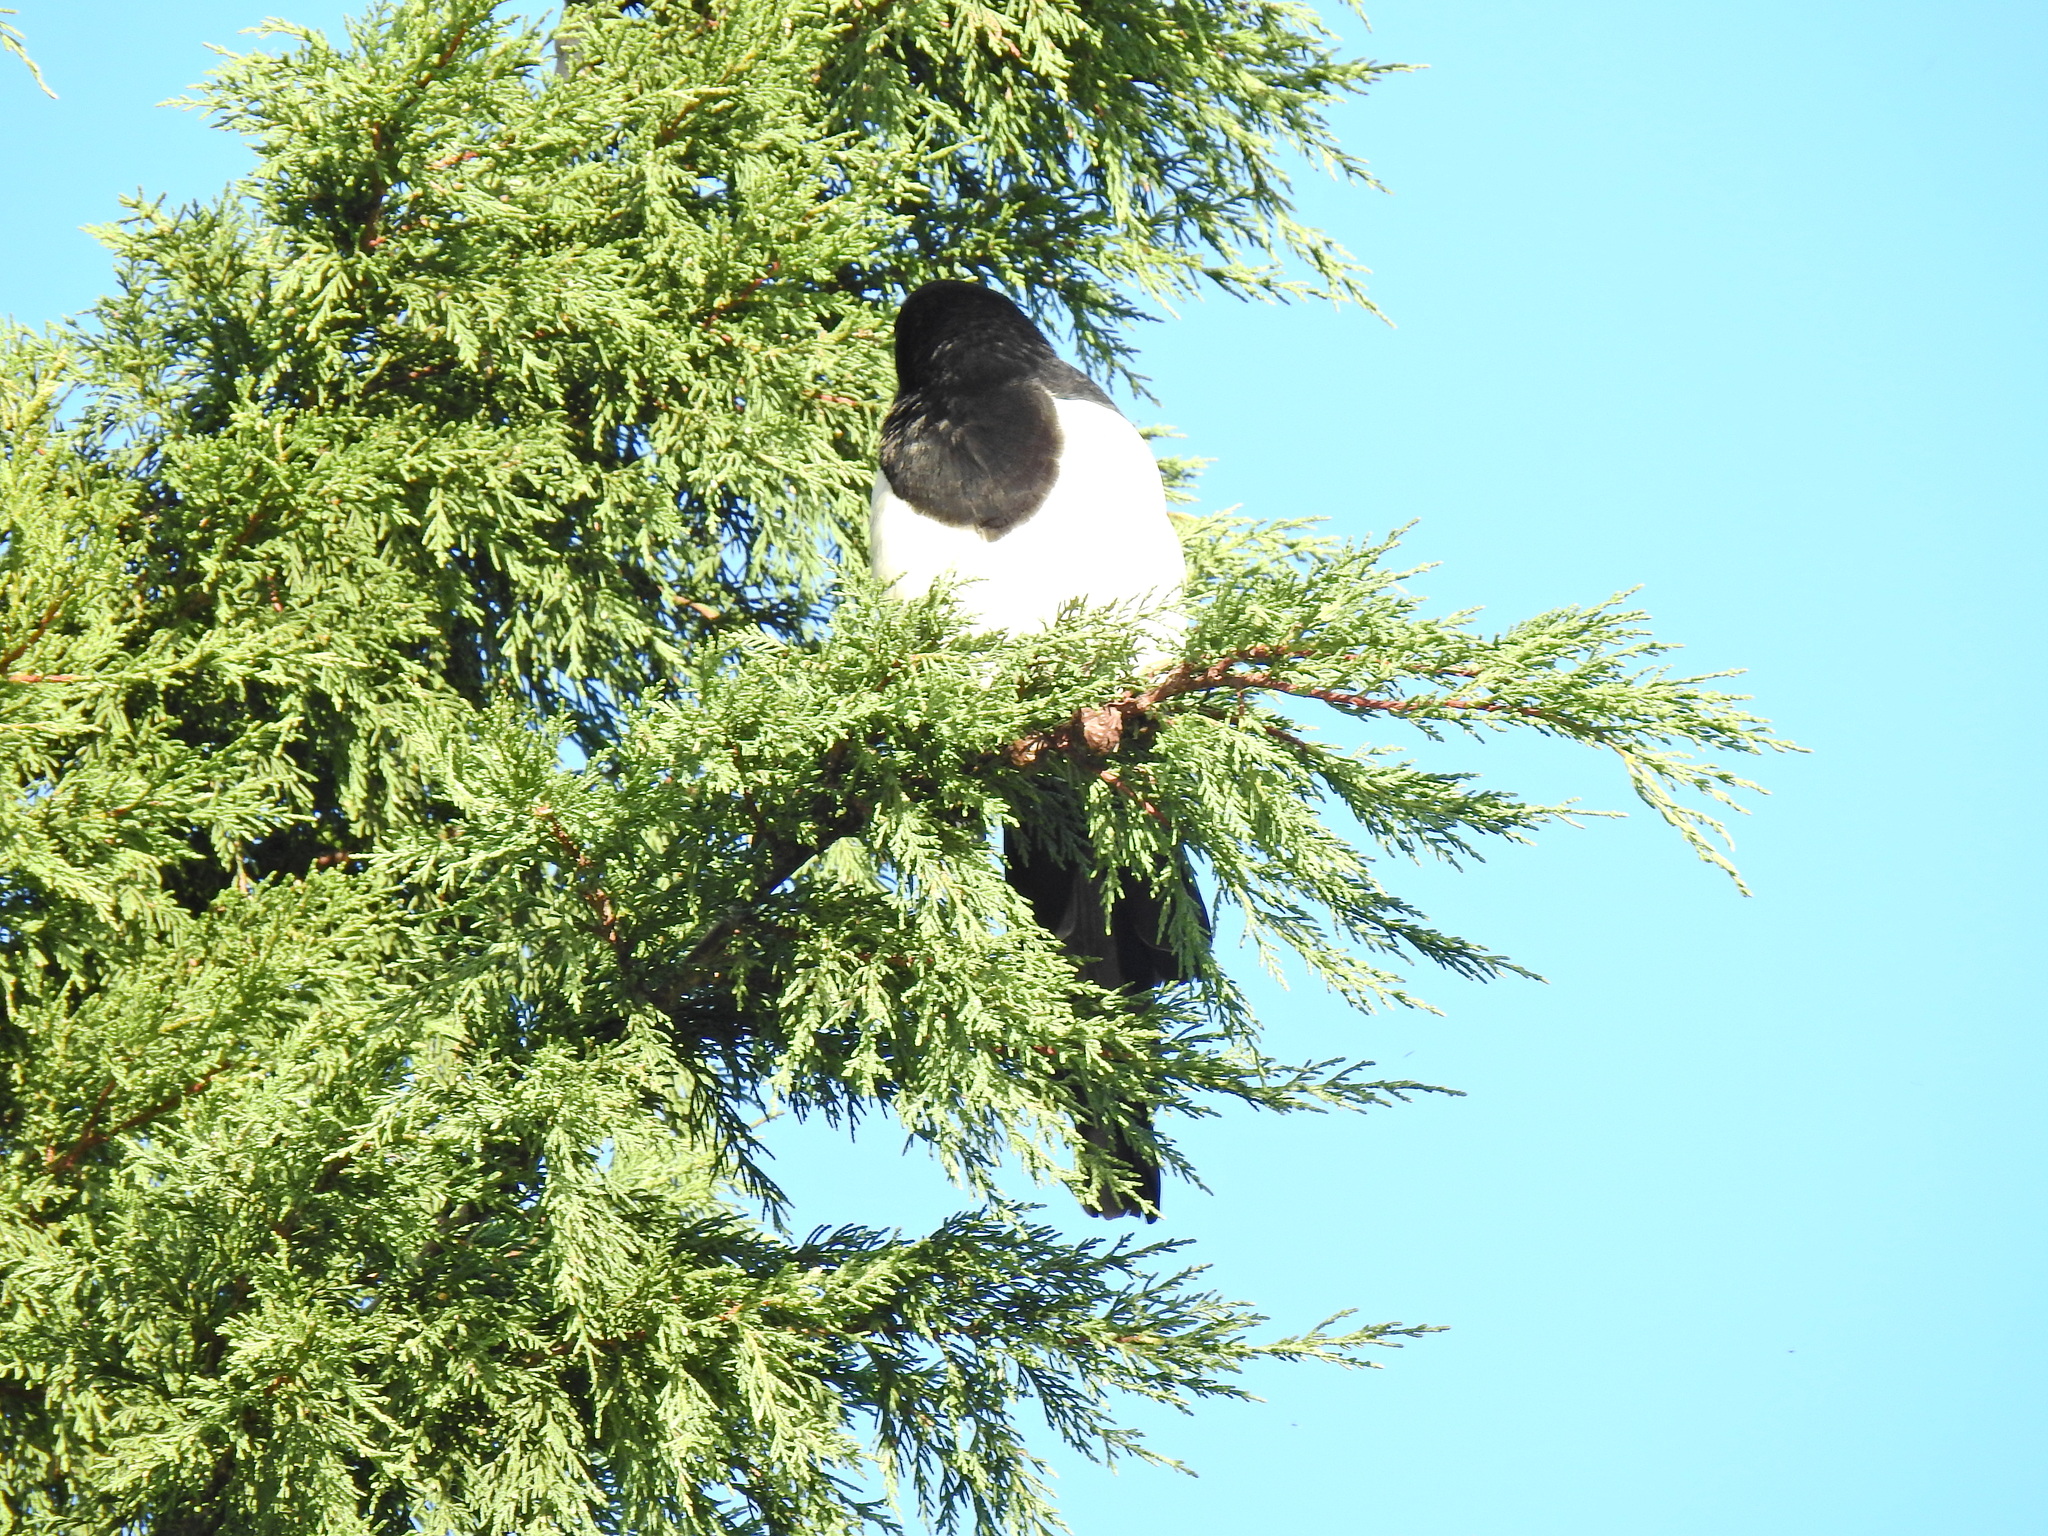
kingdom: Animalia
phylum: Chordata
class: Aves
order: Passeriformes
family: Corvidae
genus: Pica
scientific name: Pica pica
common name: Eurasian magpie
